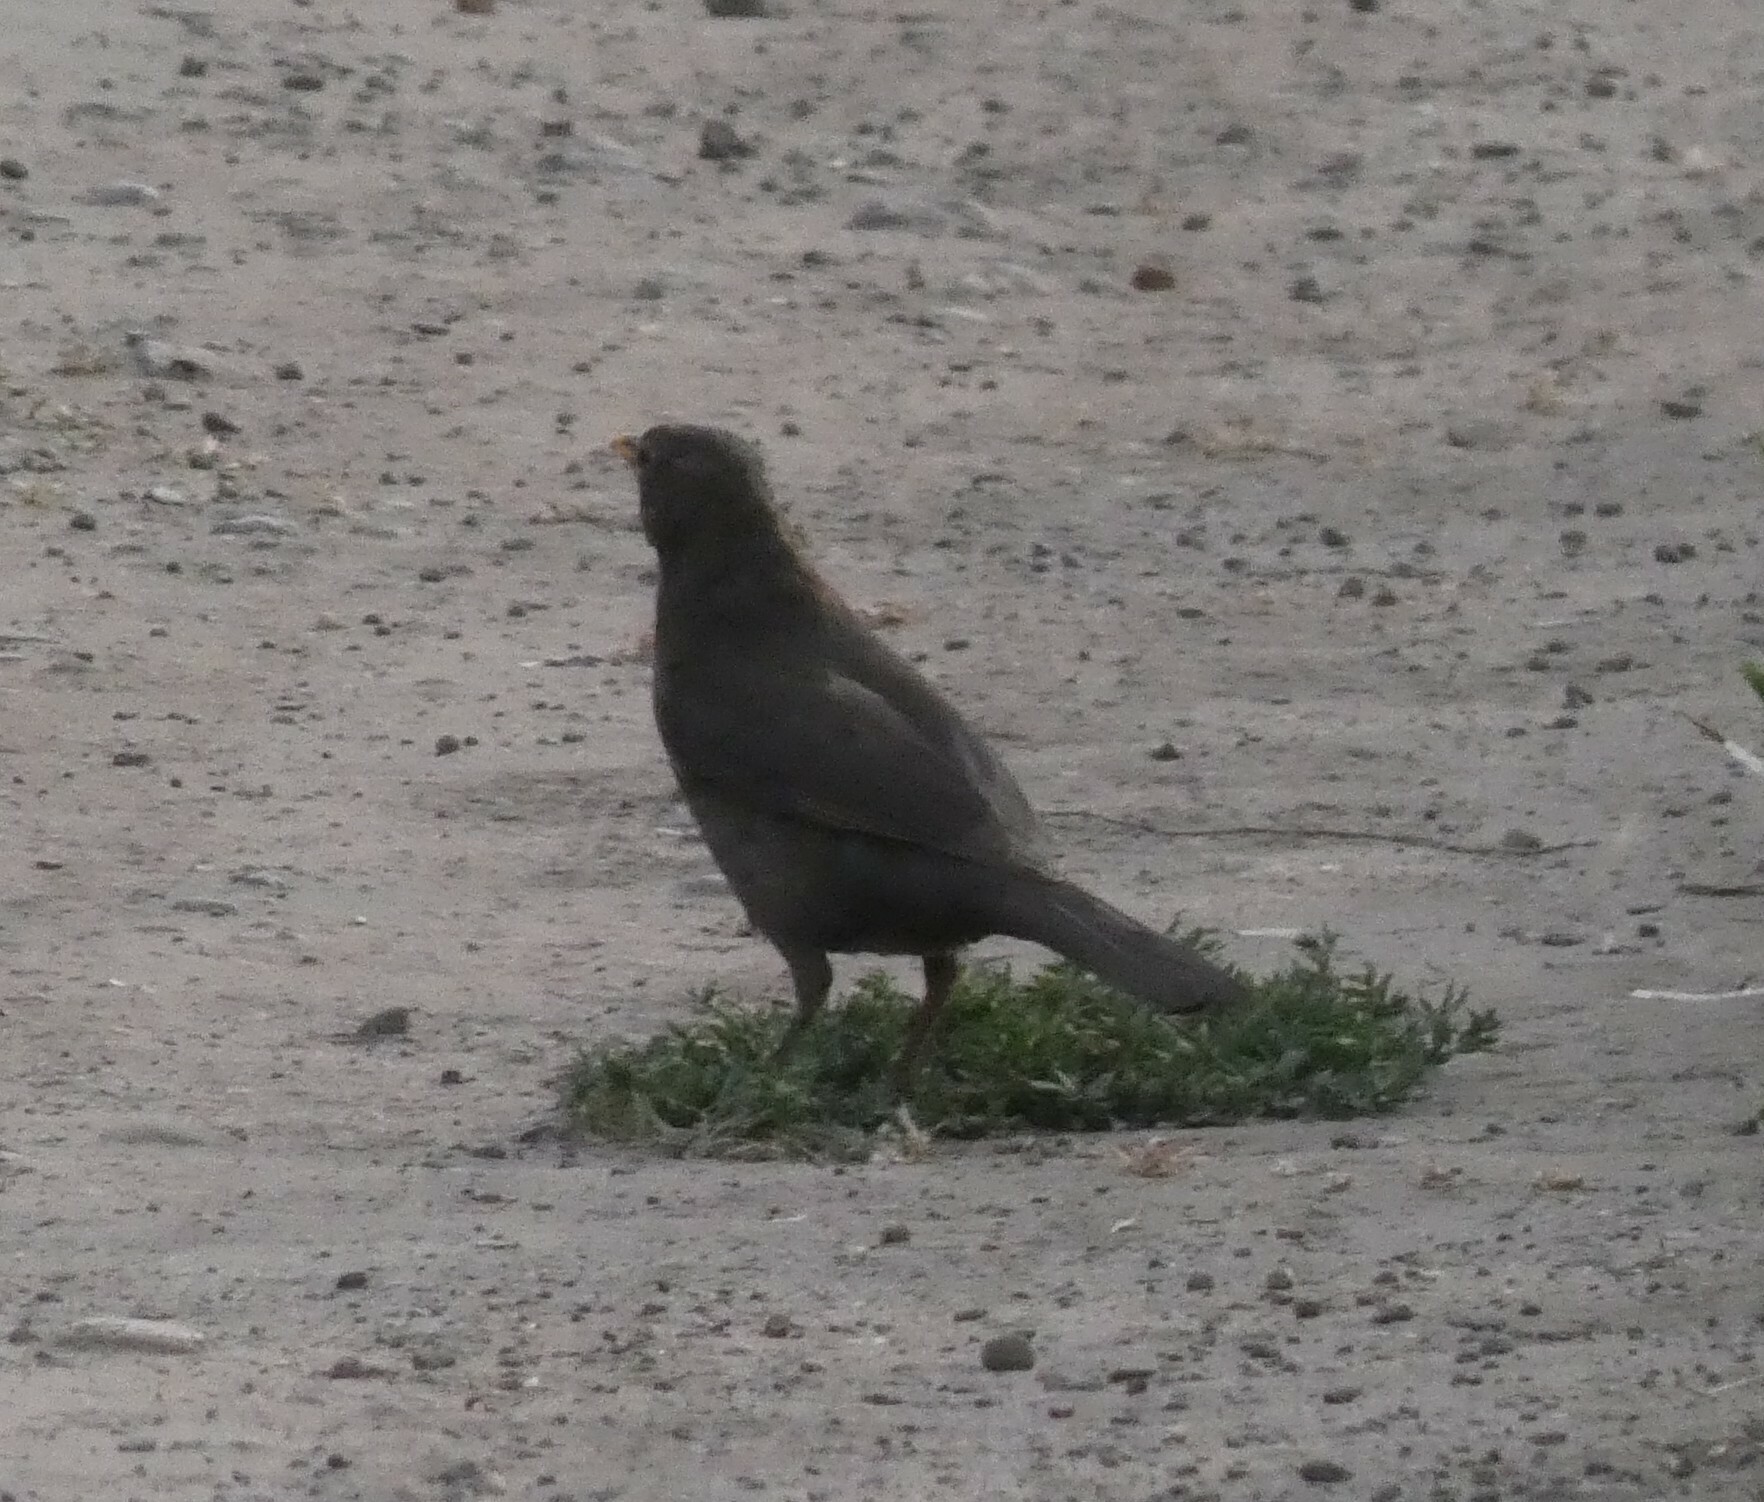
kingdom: Animalia
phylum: Chordata
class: Aves
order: Passeriformes
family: Turdidae
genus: Turdus
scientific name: Turdus merula
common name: Common blackbird
